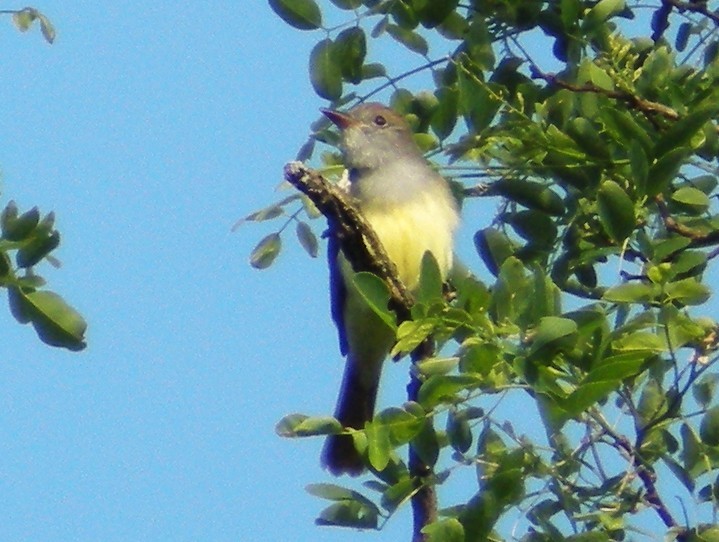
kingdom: Animalia
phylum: Chordata
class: Aves
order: Passeriformes
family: Tyrannidae
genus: Myiarchus
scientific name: Myiarchus crinitus
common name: Great crested flycatcher
